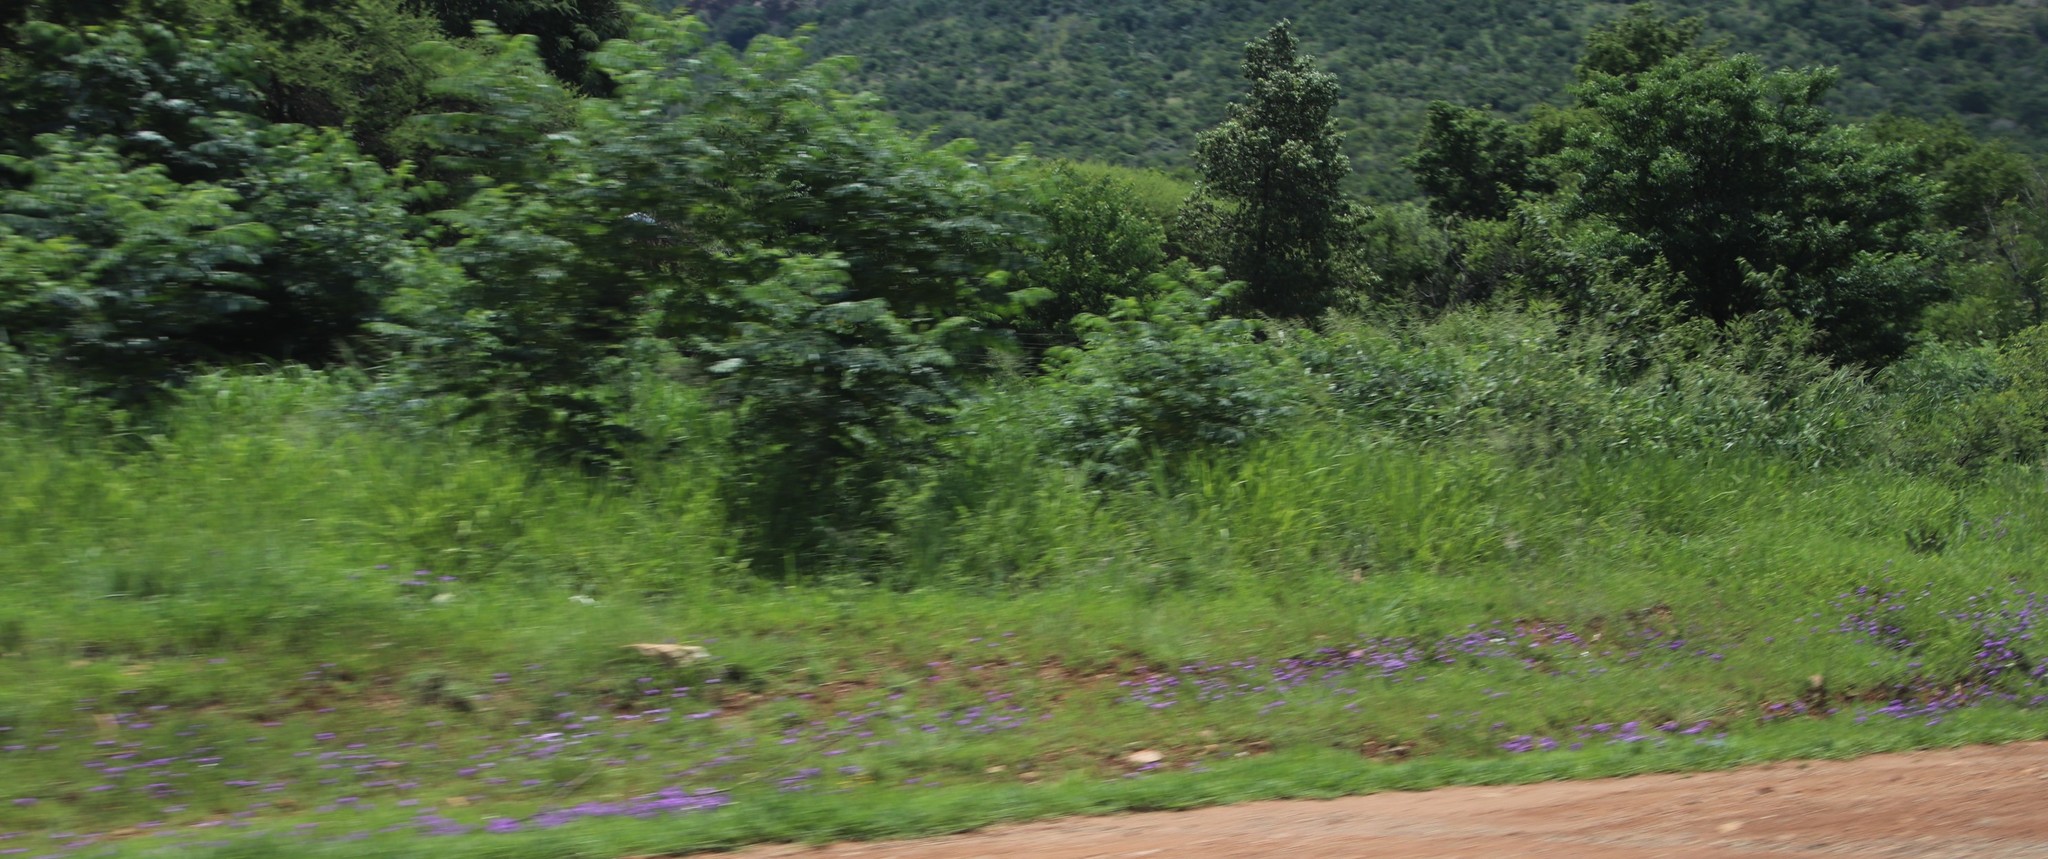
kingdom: Plantae
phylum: Tracheophyta
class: Magnoliopsida
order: Lamiales
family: Verbenaceae
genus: Verbena
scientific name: Verbena aristigera
